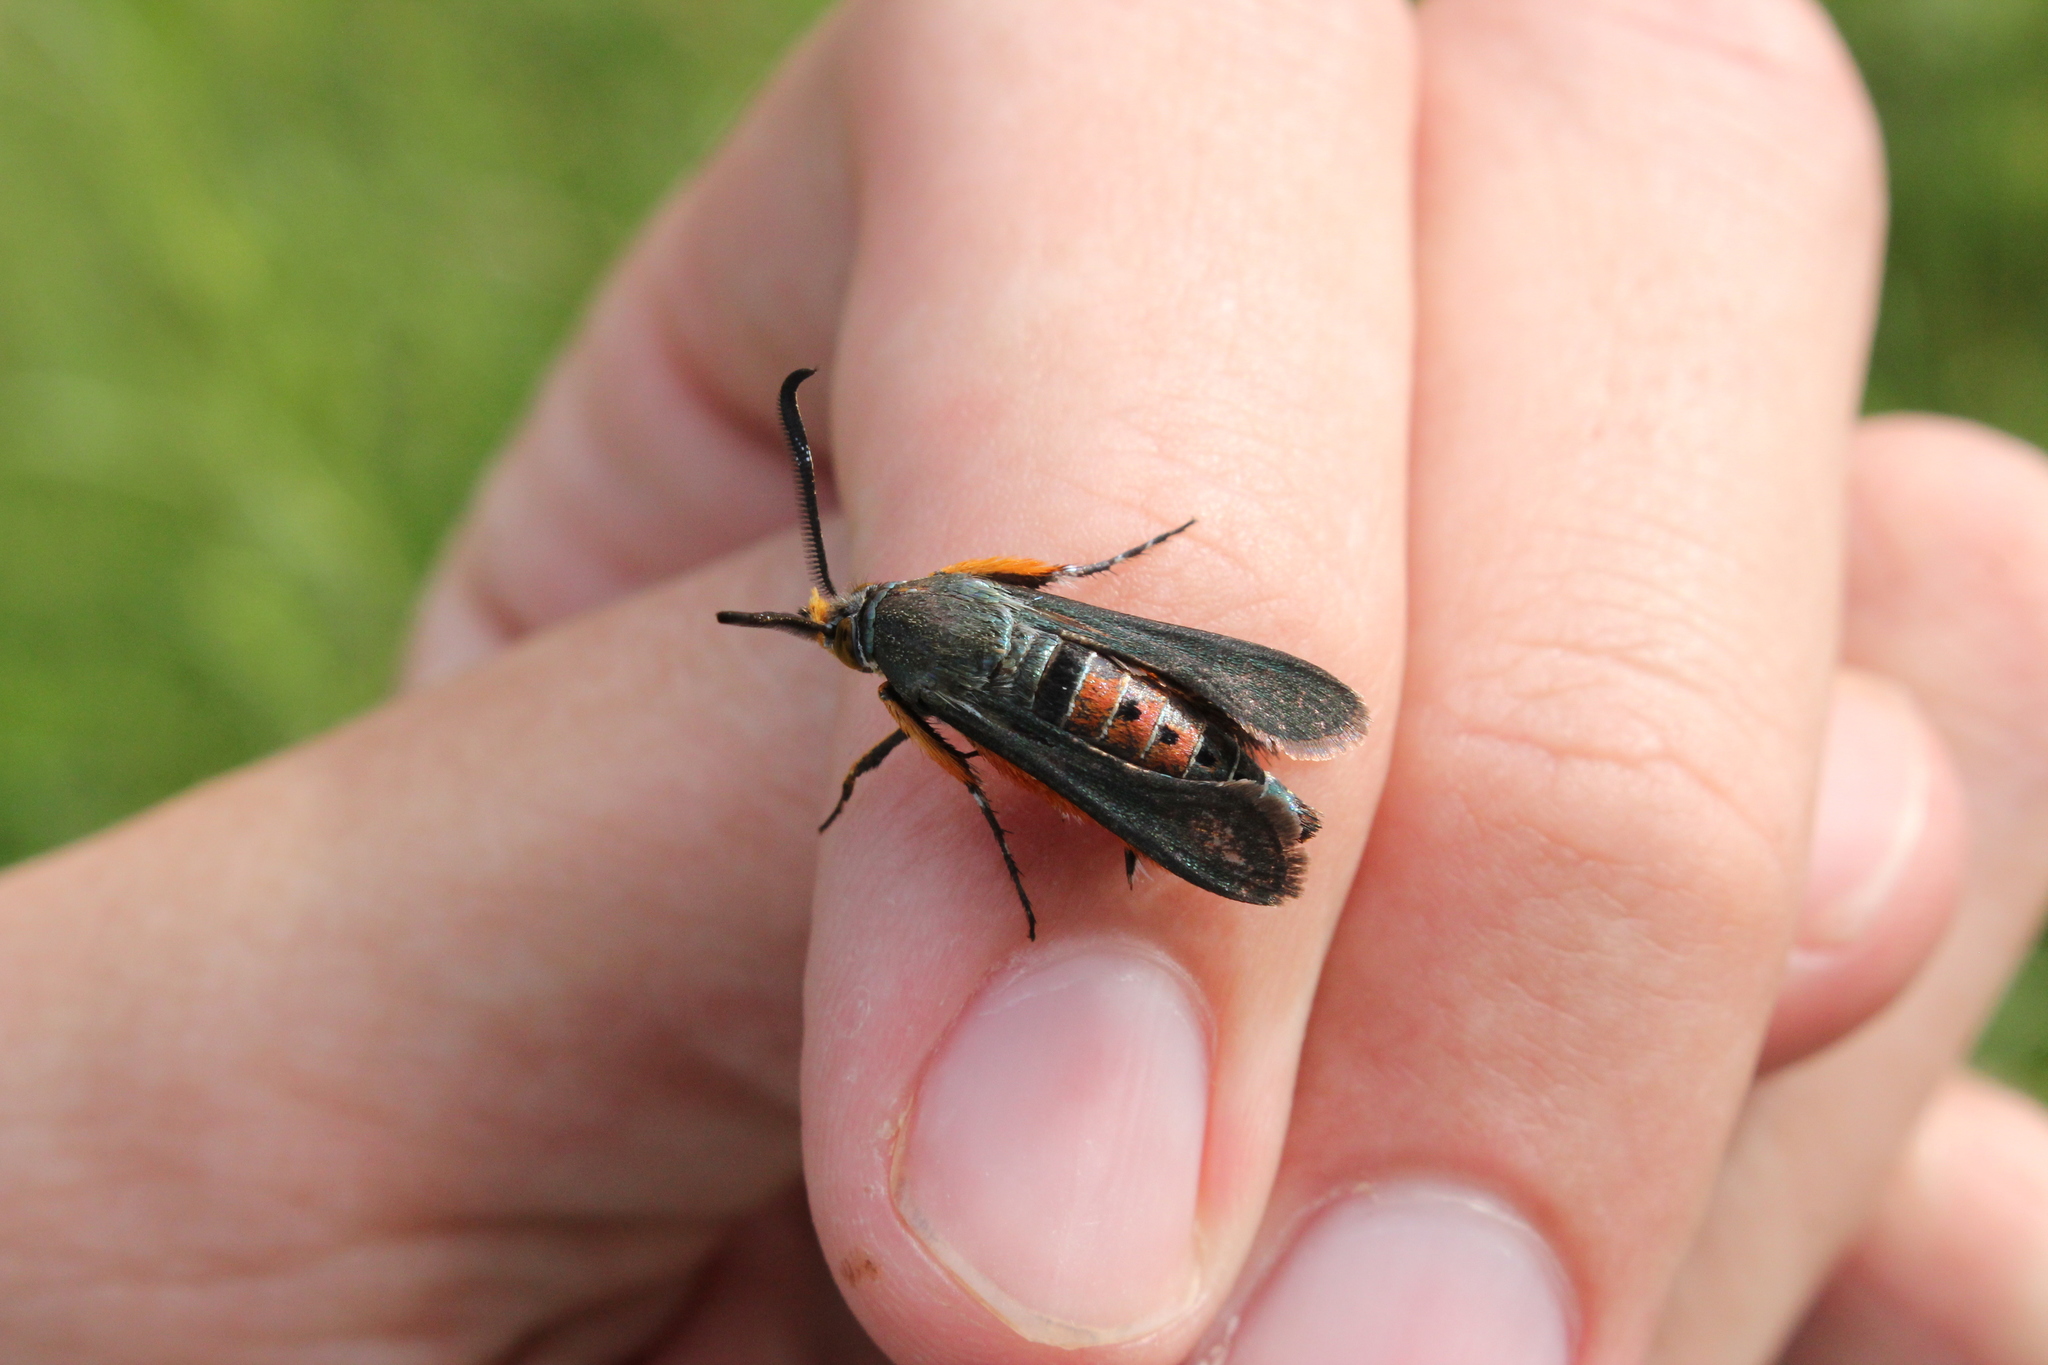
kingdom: Animalia
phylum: Arthropoda
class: Insecta
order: Lepidoptera
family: Sesiidae
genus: Eichlinia
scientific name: Eichlinia cucurbitae
